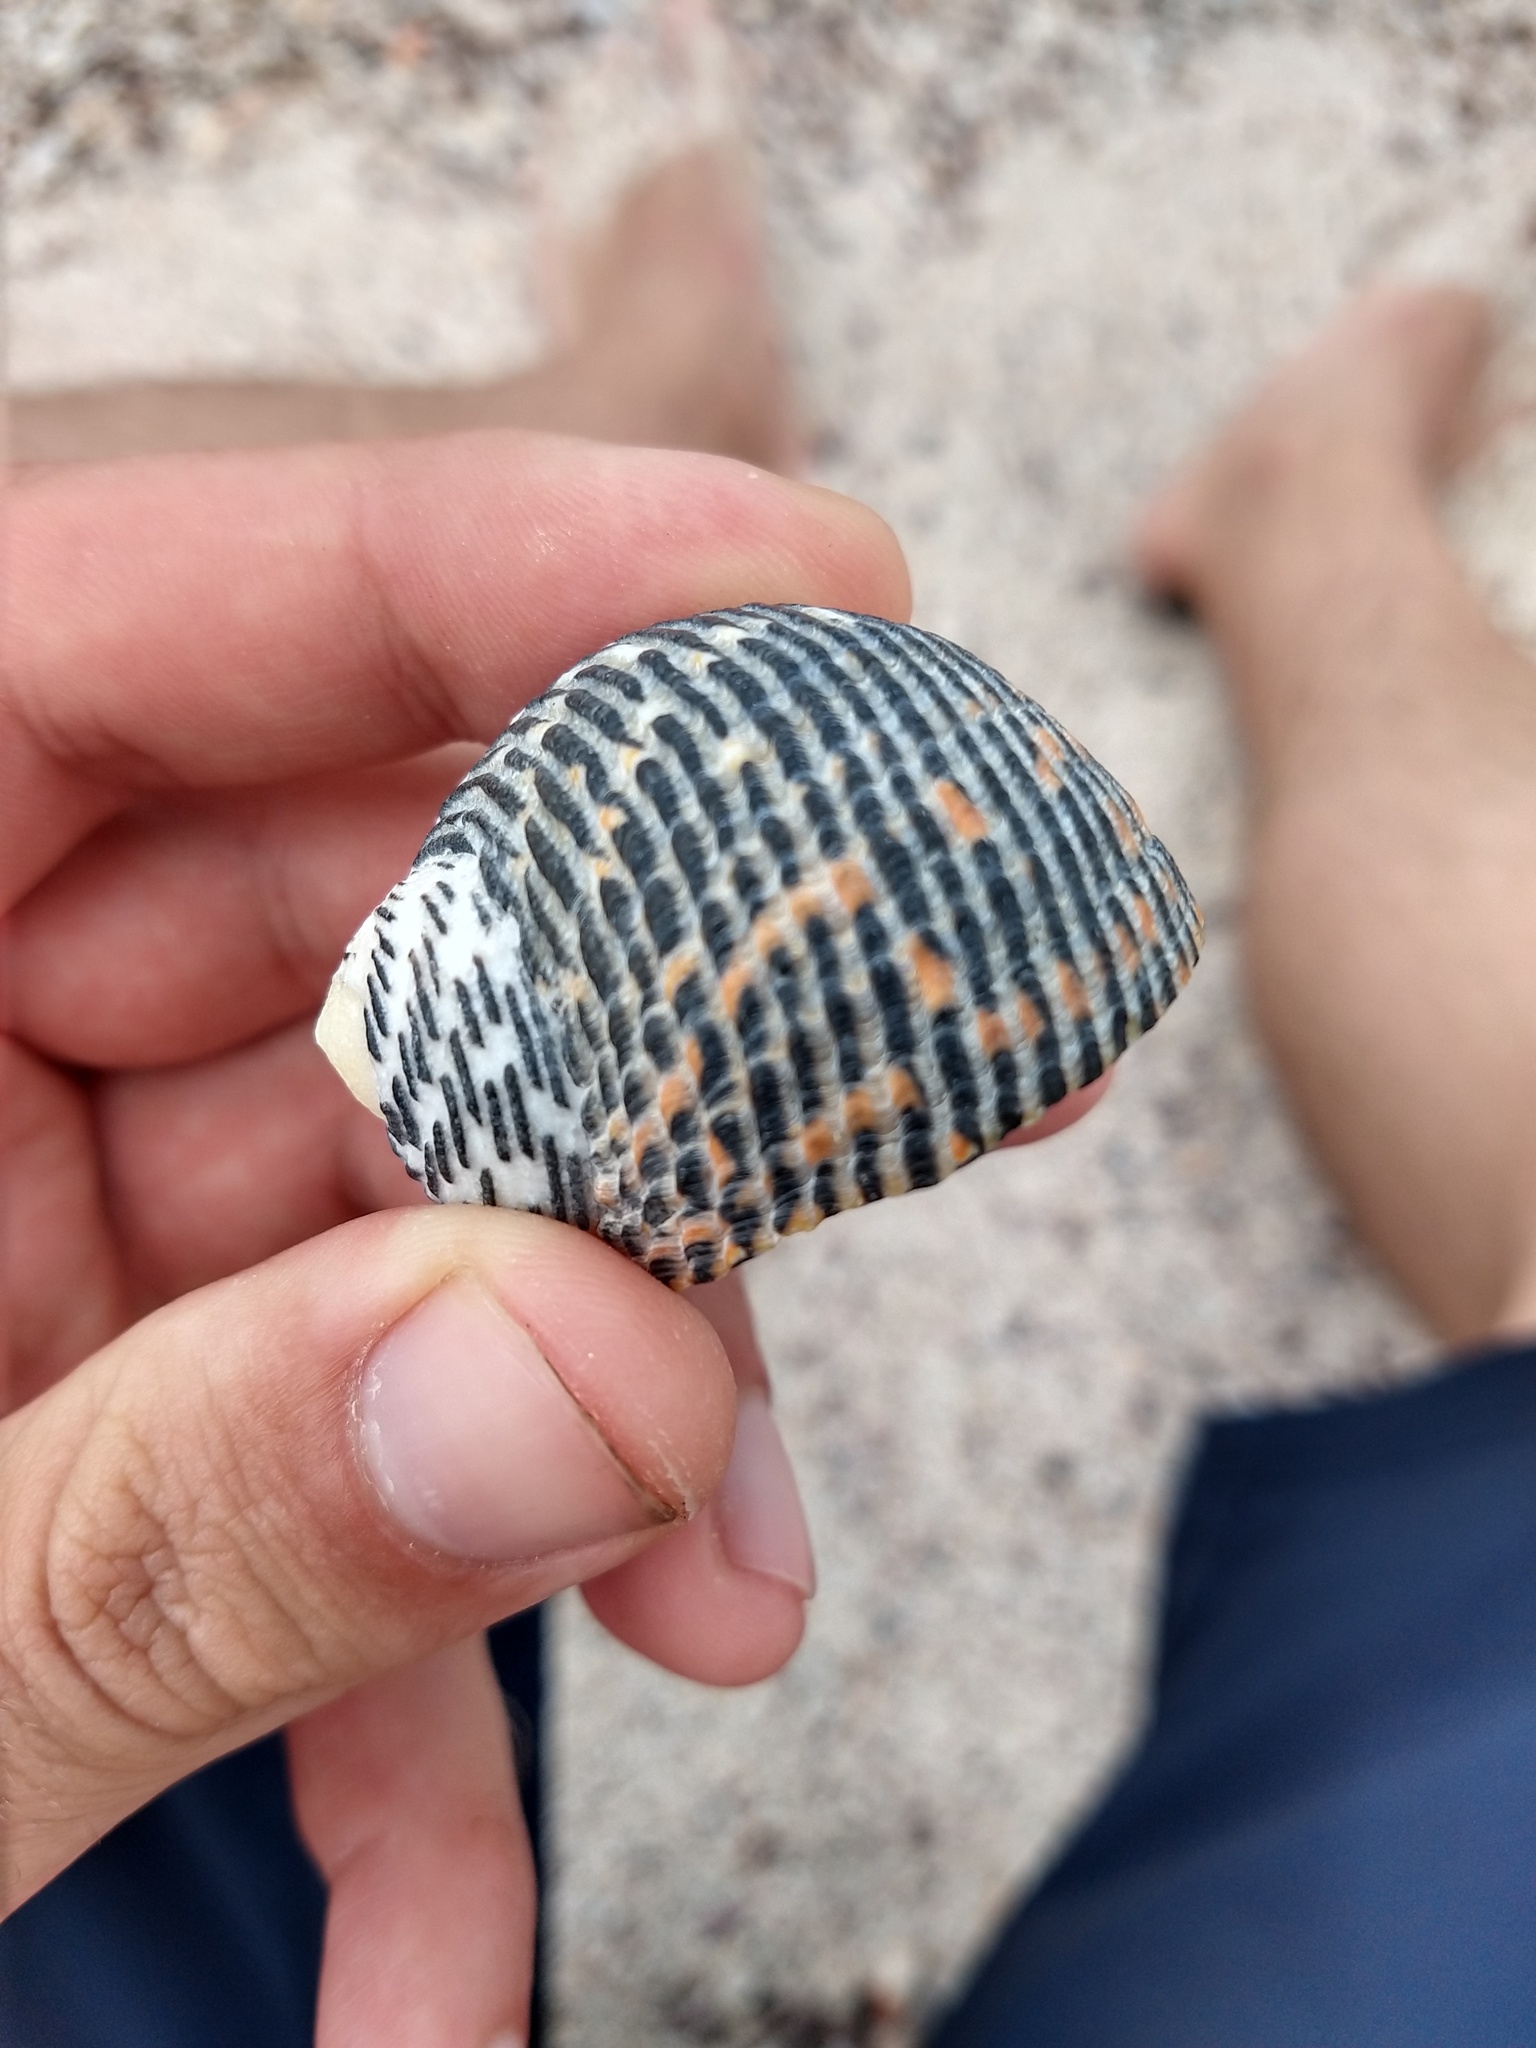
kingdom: Animalia
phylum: Mollusca
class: Gastropoda
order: Cycloneritida
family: Neritidae
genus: Nerita
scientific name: Nerita scabricosta
